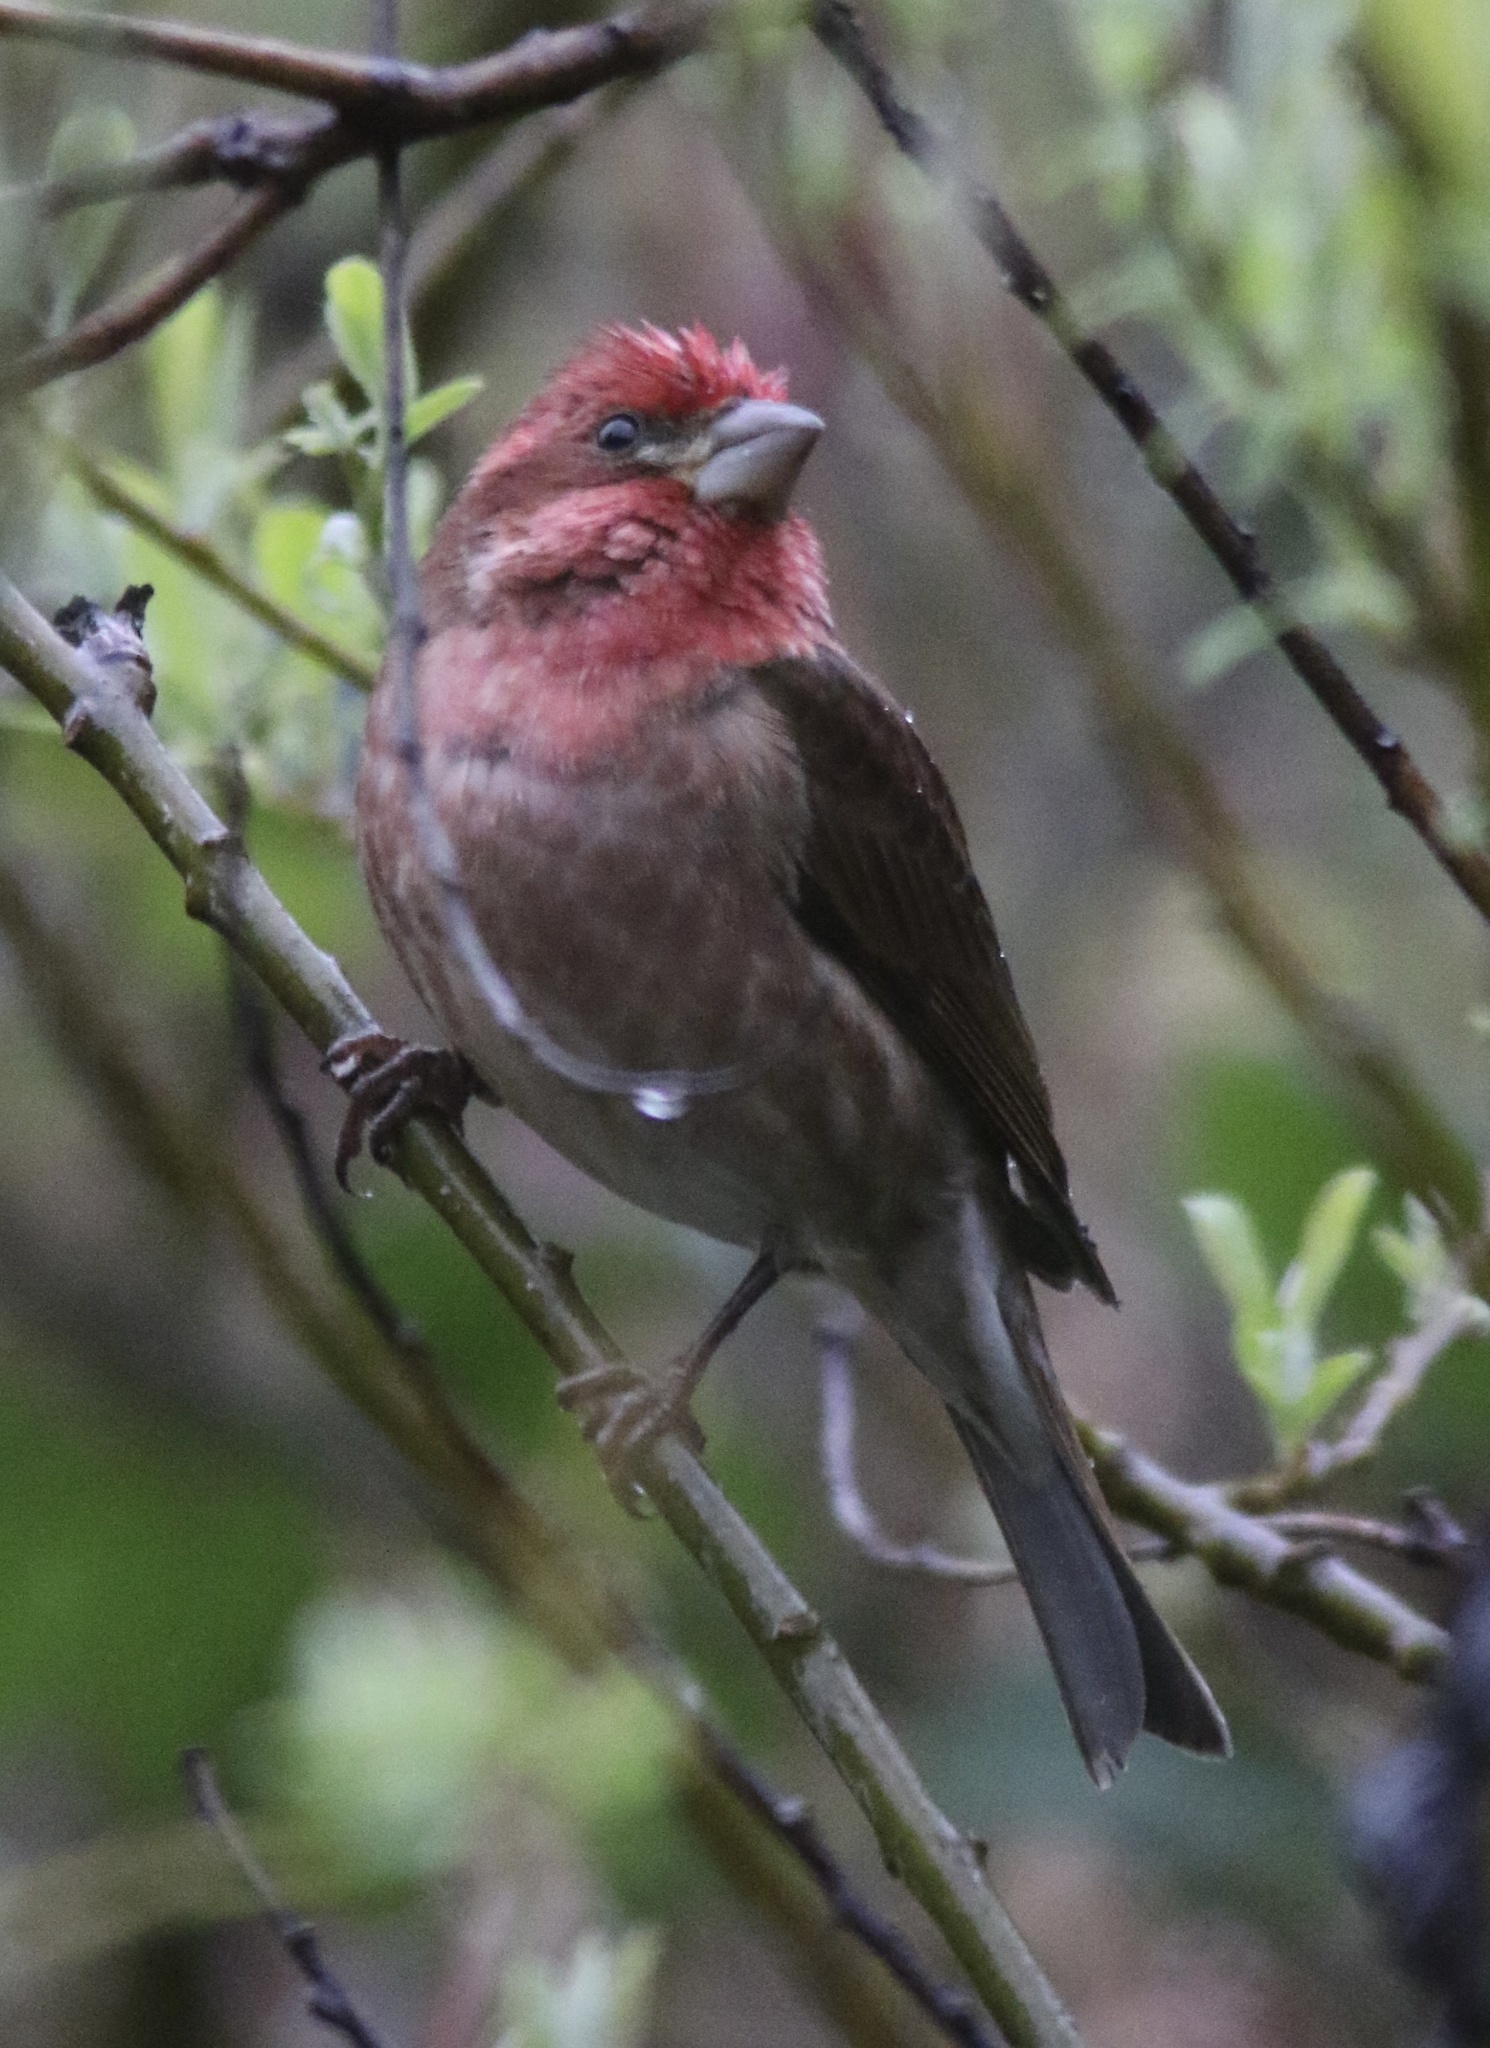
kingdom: Animalia
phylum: Chordata
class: Aves
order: Passeriformes
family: Fringillidae
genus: Haemorhous
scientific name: Haemorhous purpureus
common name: Purple finch
